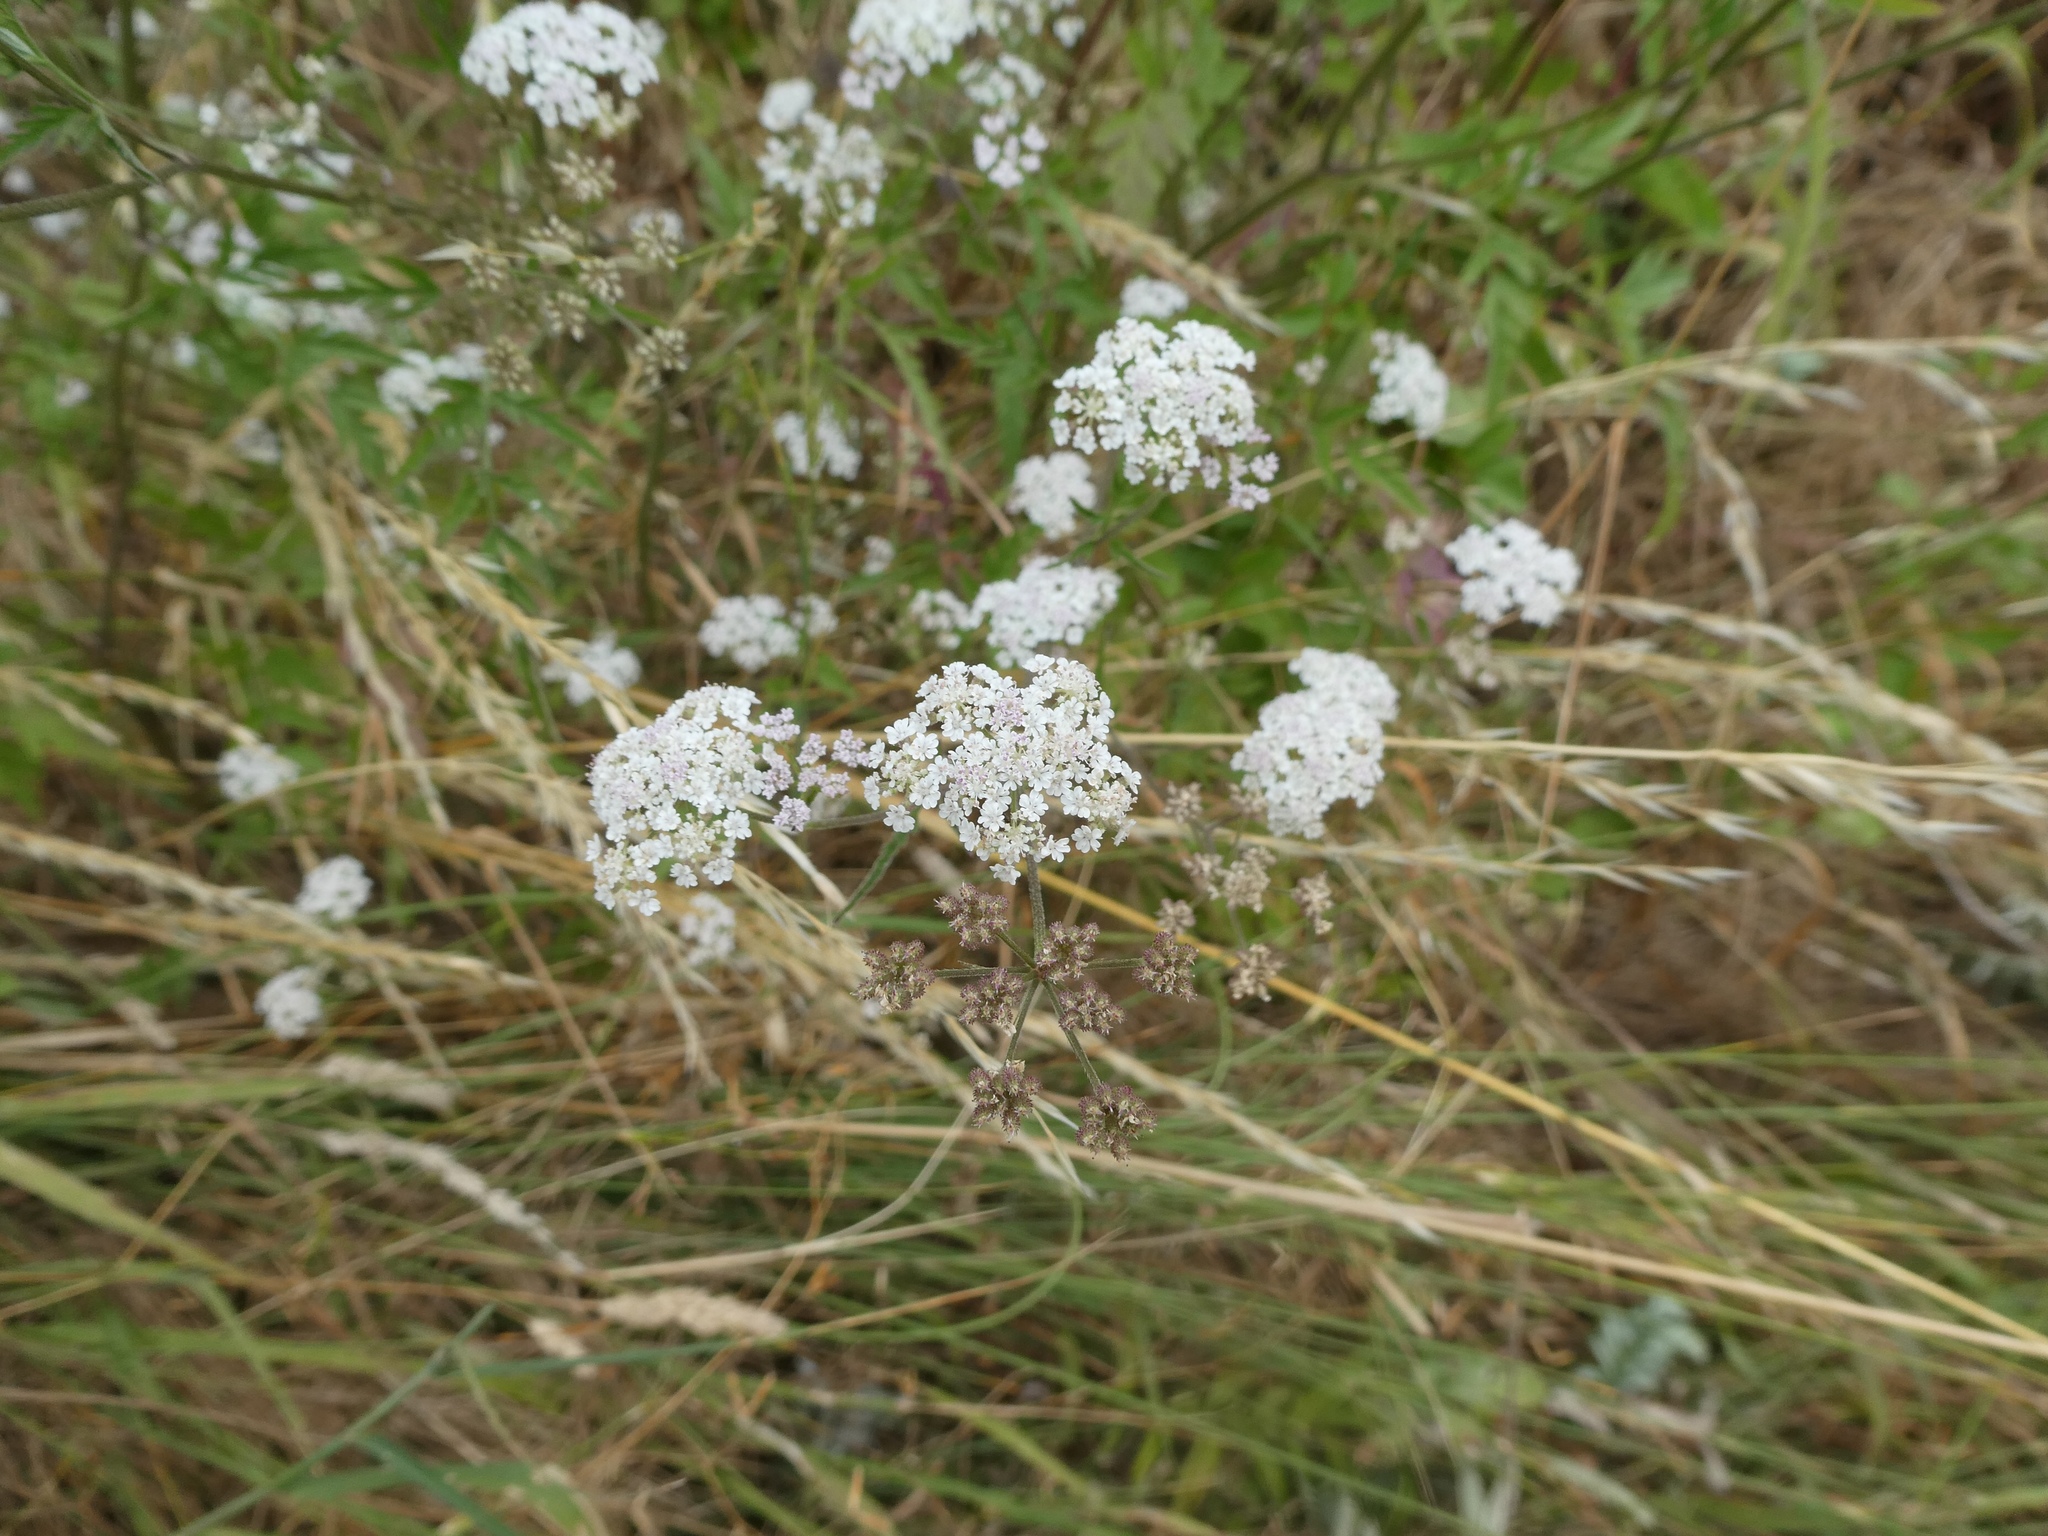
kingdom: Plantae
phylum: Tracheophyta
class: Magnoliopsida
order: Apiales
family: Apiaceae
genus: Torilis
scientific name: Torilis japonica
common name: Upright hedge-parsley
